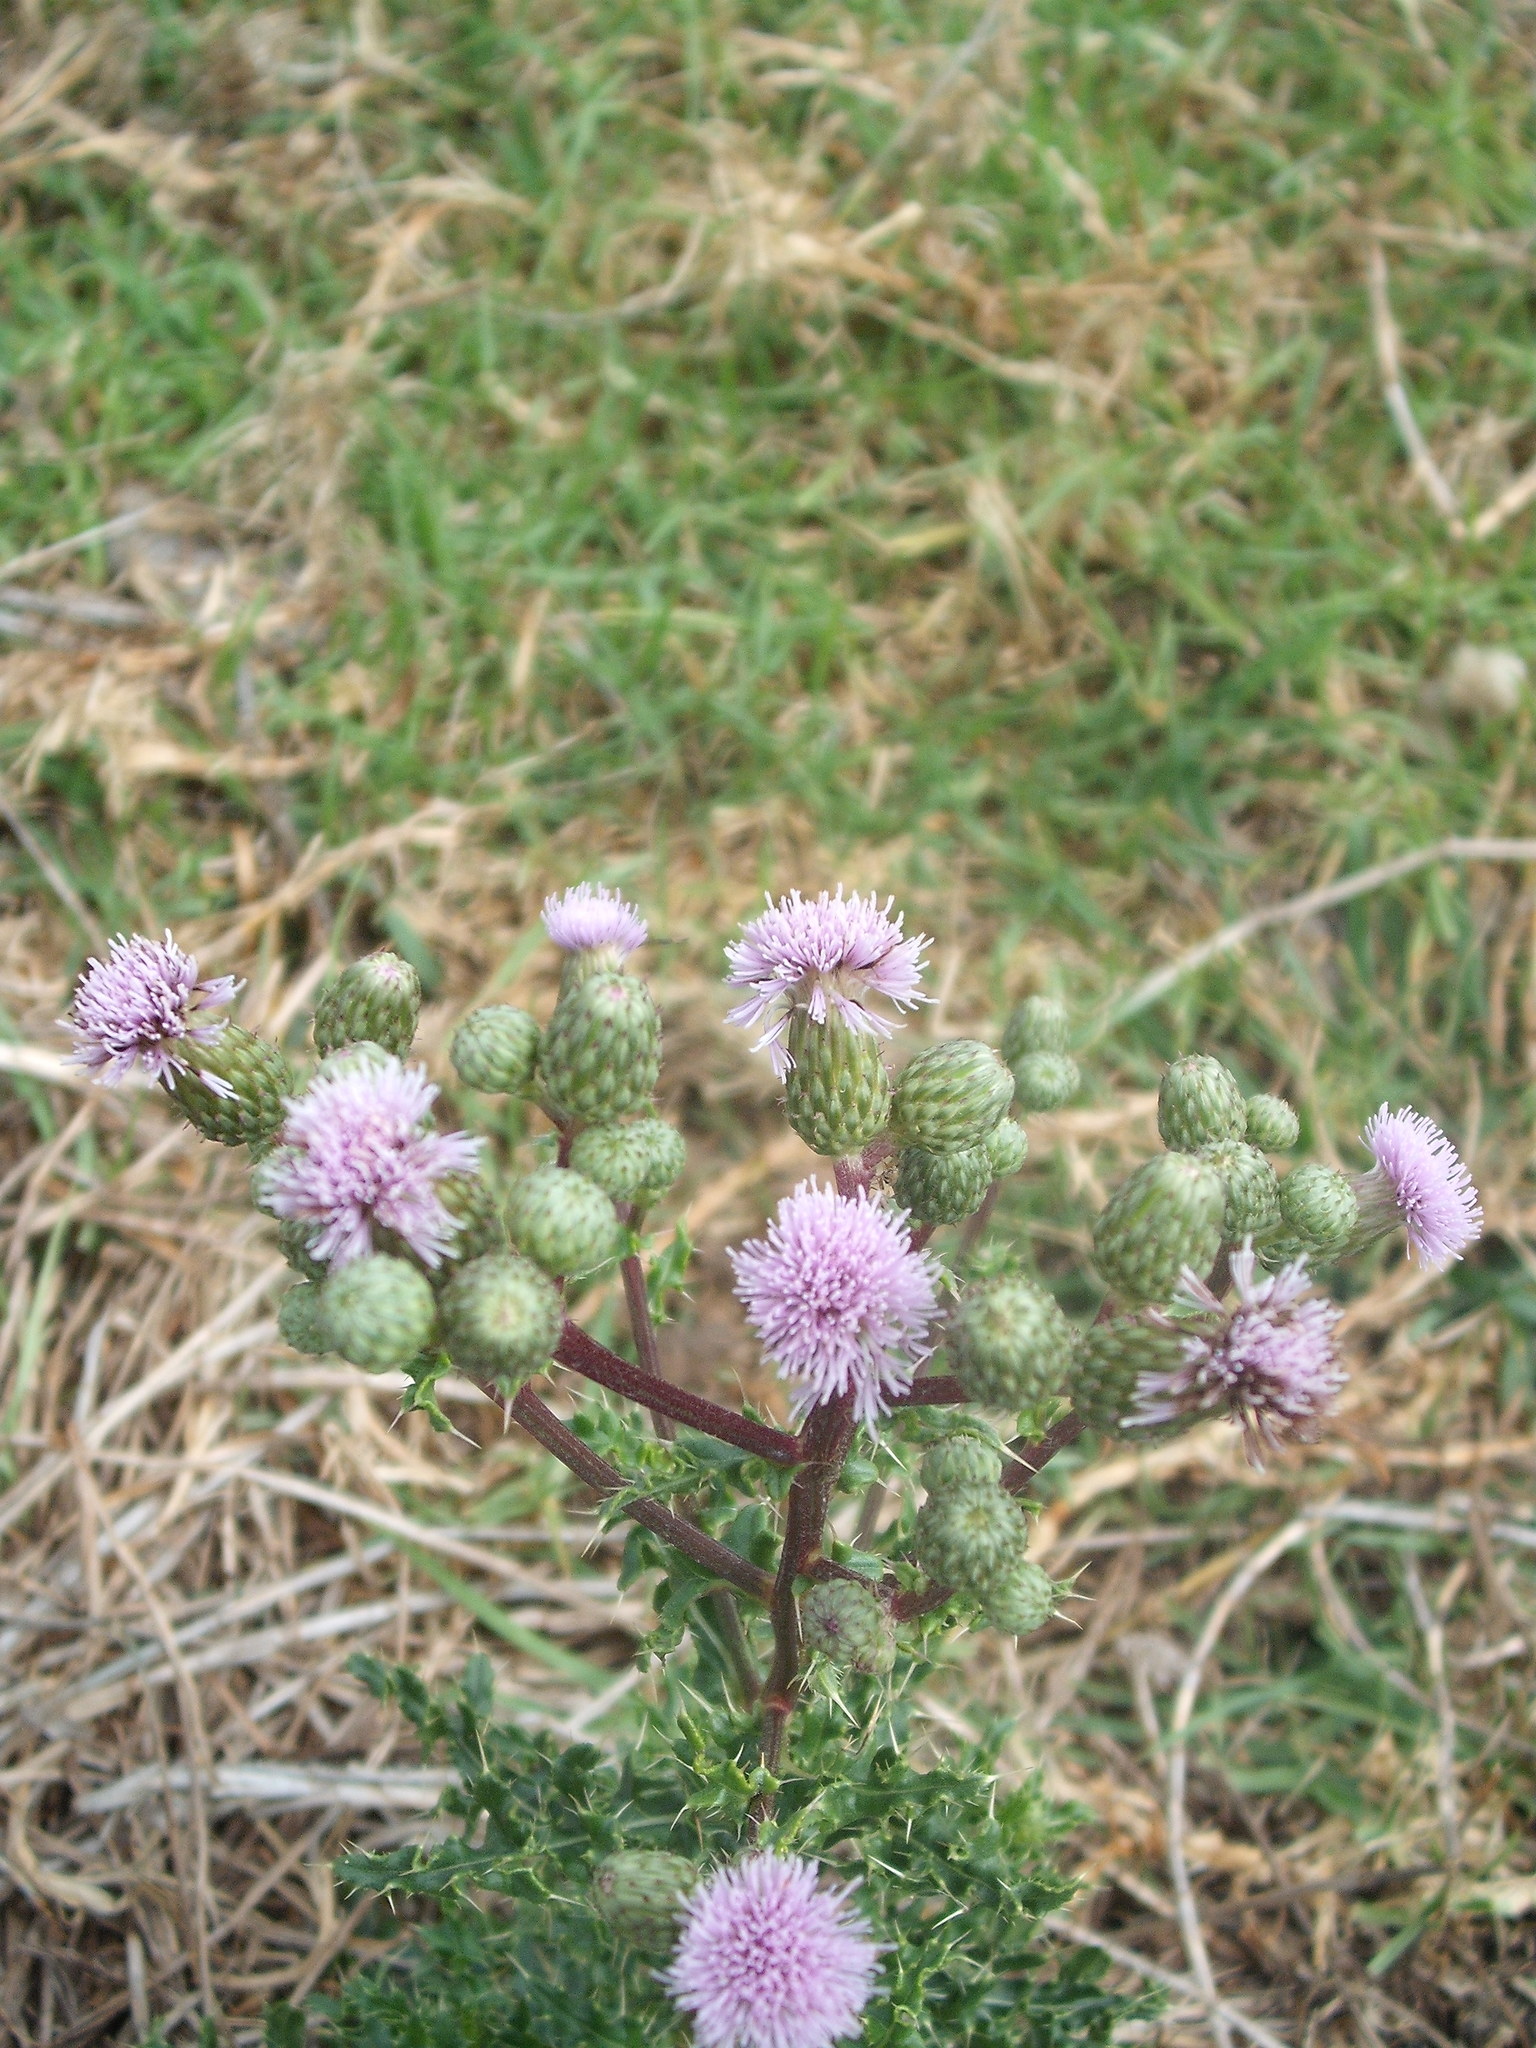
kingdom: Plantae
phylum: Tracheophyta
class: Magnoliopsida
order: Asterales
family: Asteraceae
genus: Cirsium
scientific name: Cirsium arvense
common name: Creeping thistle
